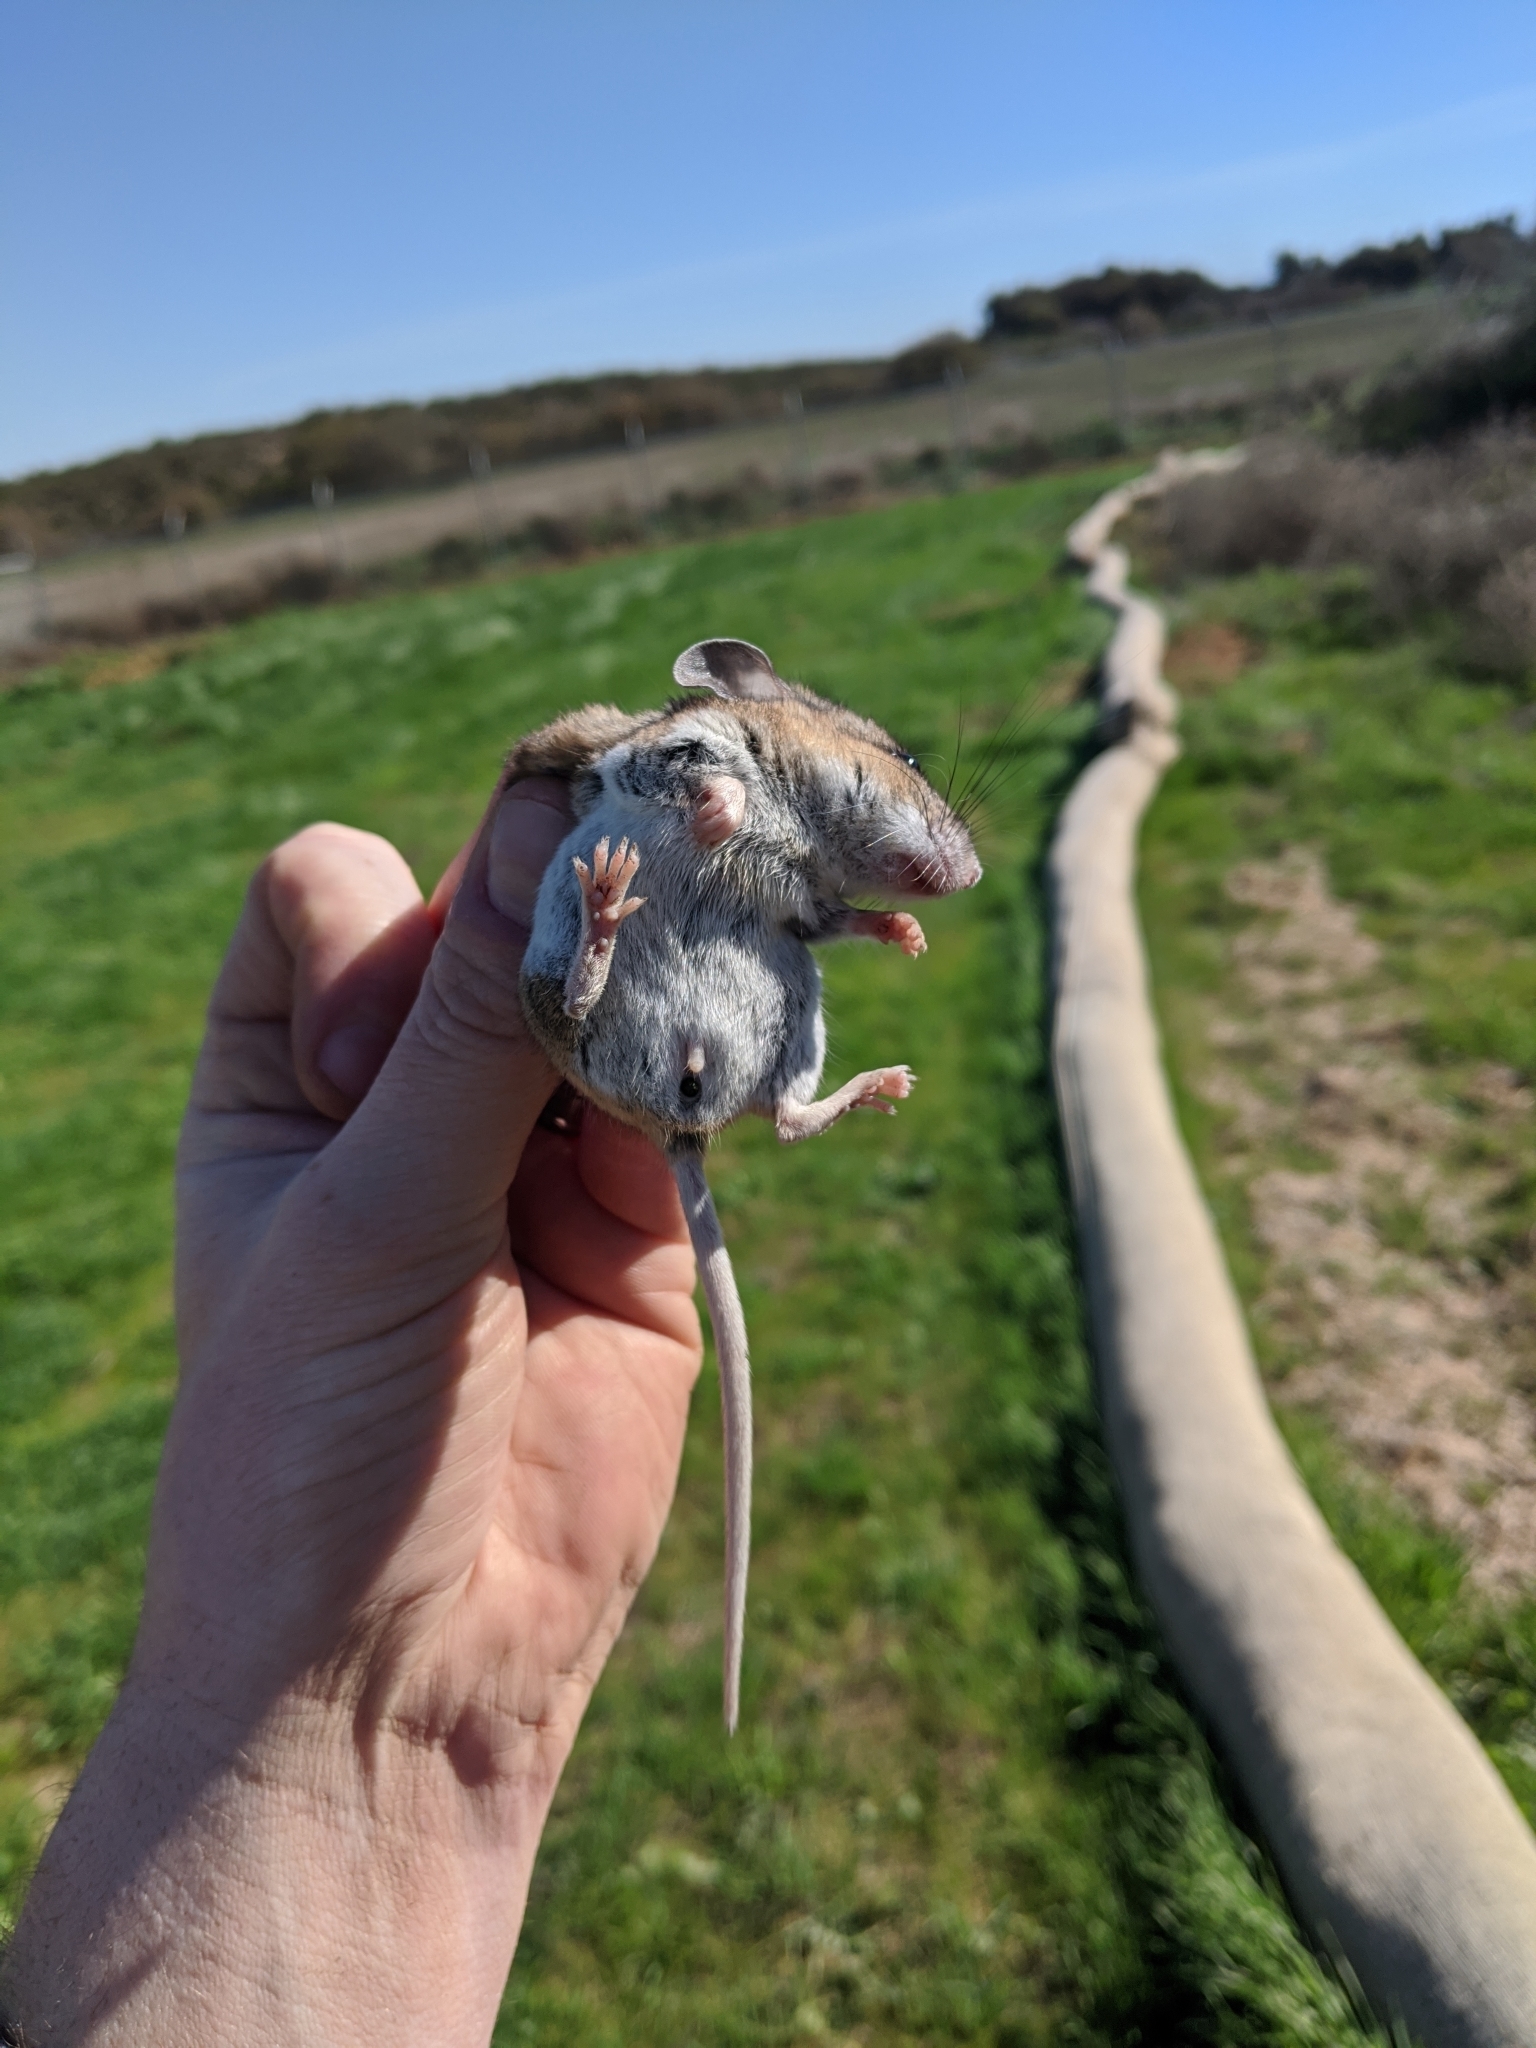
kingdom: Animalia
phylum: Chordata
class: Mammalia
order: Rodentia
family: Cricetidae
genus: Peromyscus
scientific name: Peromyscus maniculatus
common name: Deer mouse
